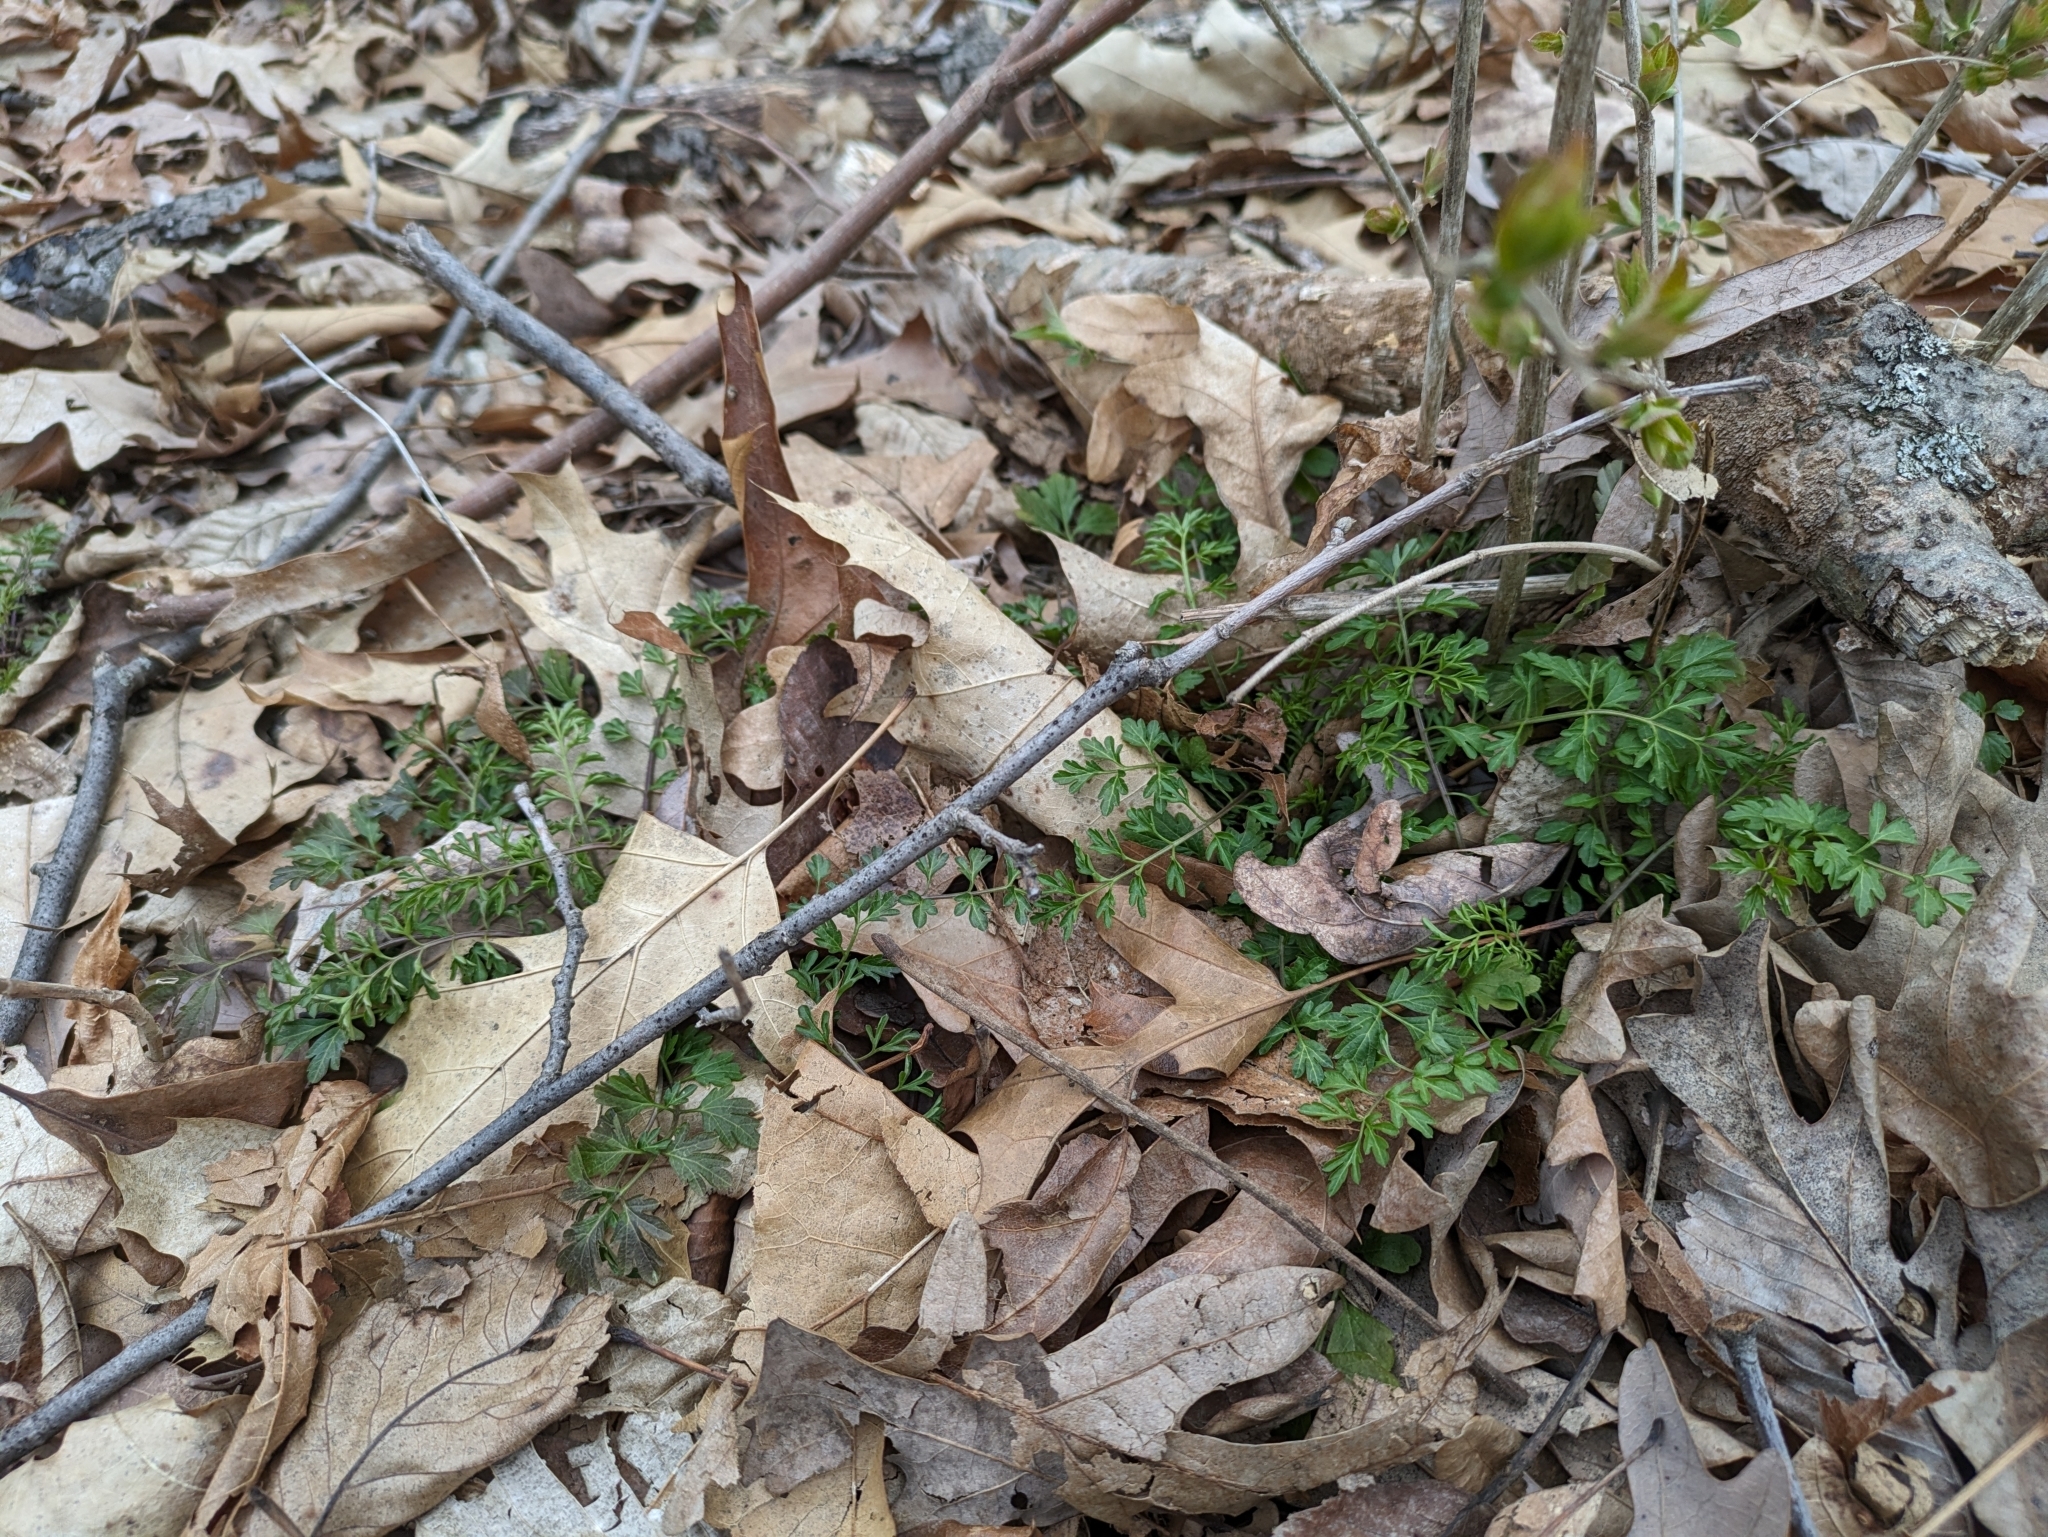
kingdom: Plantae
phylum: Tracheophyta
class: Magnoliopsida
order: Brassicales
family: Brassicaceae
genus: Cardamine
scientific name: Cardamine impatiens
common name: Narrow-leaved bitter-cress
